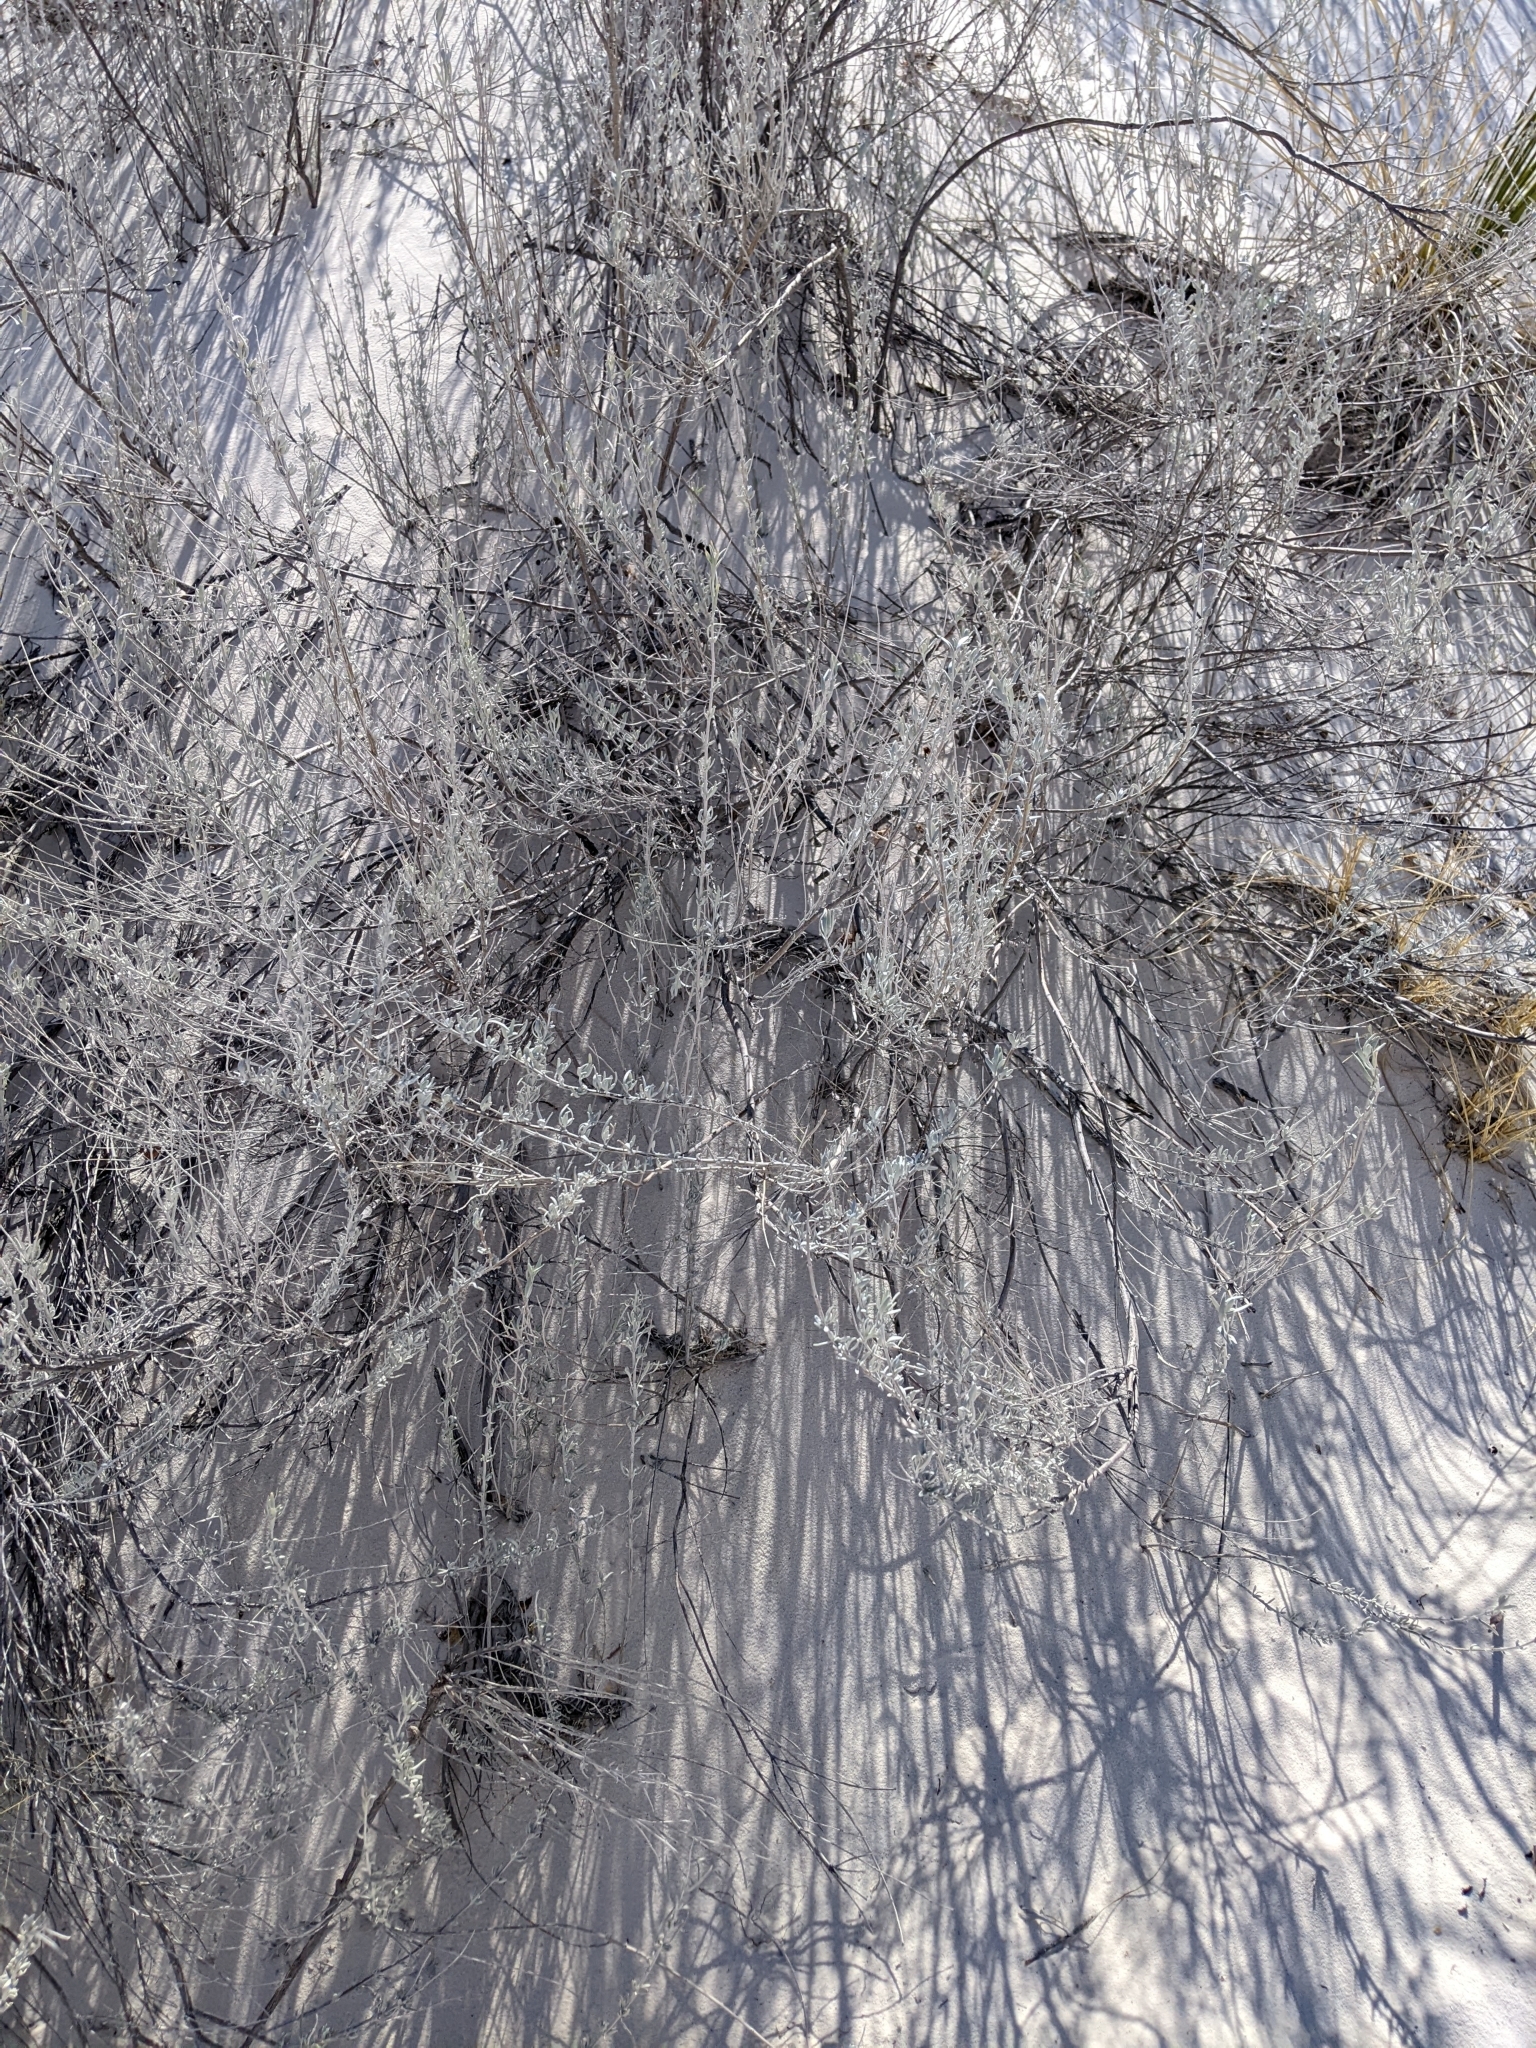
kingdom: Plantae
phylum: Tracheophyta
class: Magnoliopsida
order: Caryophyllales
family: Amaranthaceae
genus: Atriplex
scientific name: Atriplex canescens
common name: Four-wing saltbush
